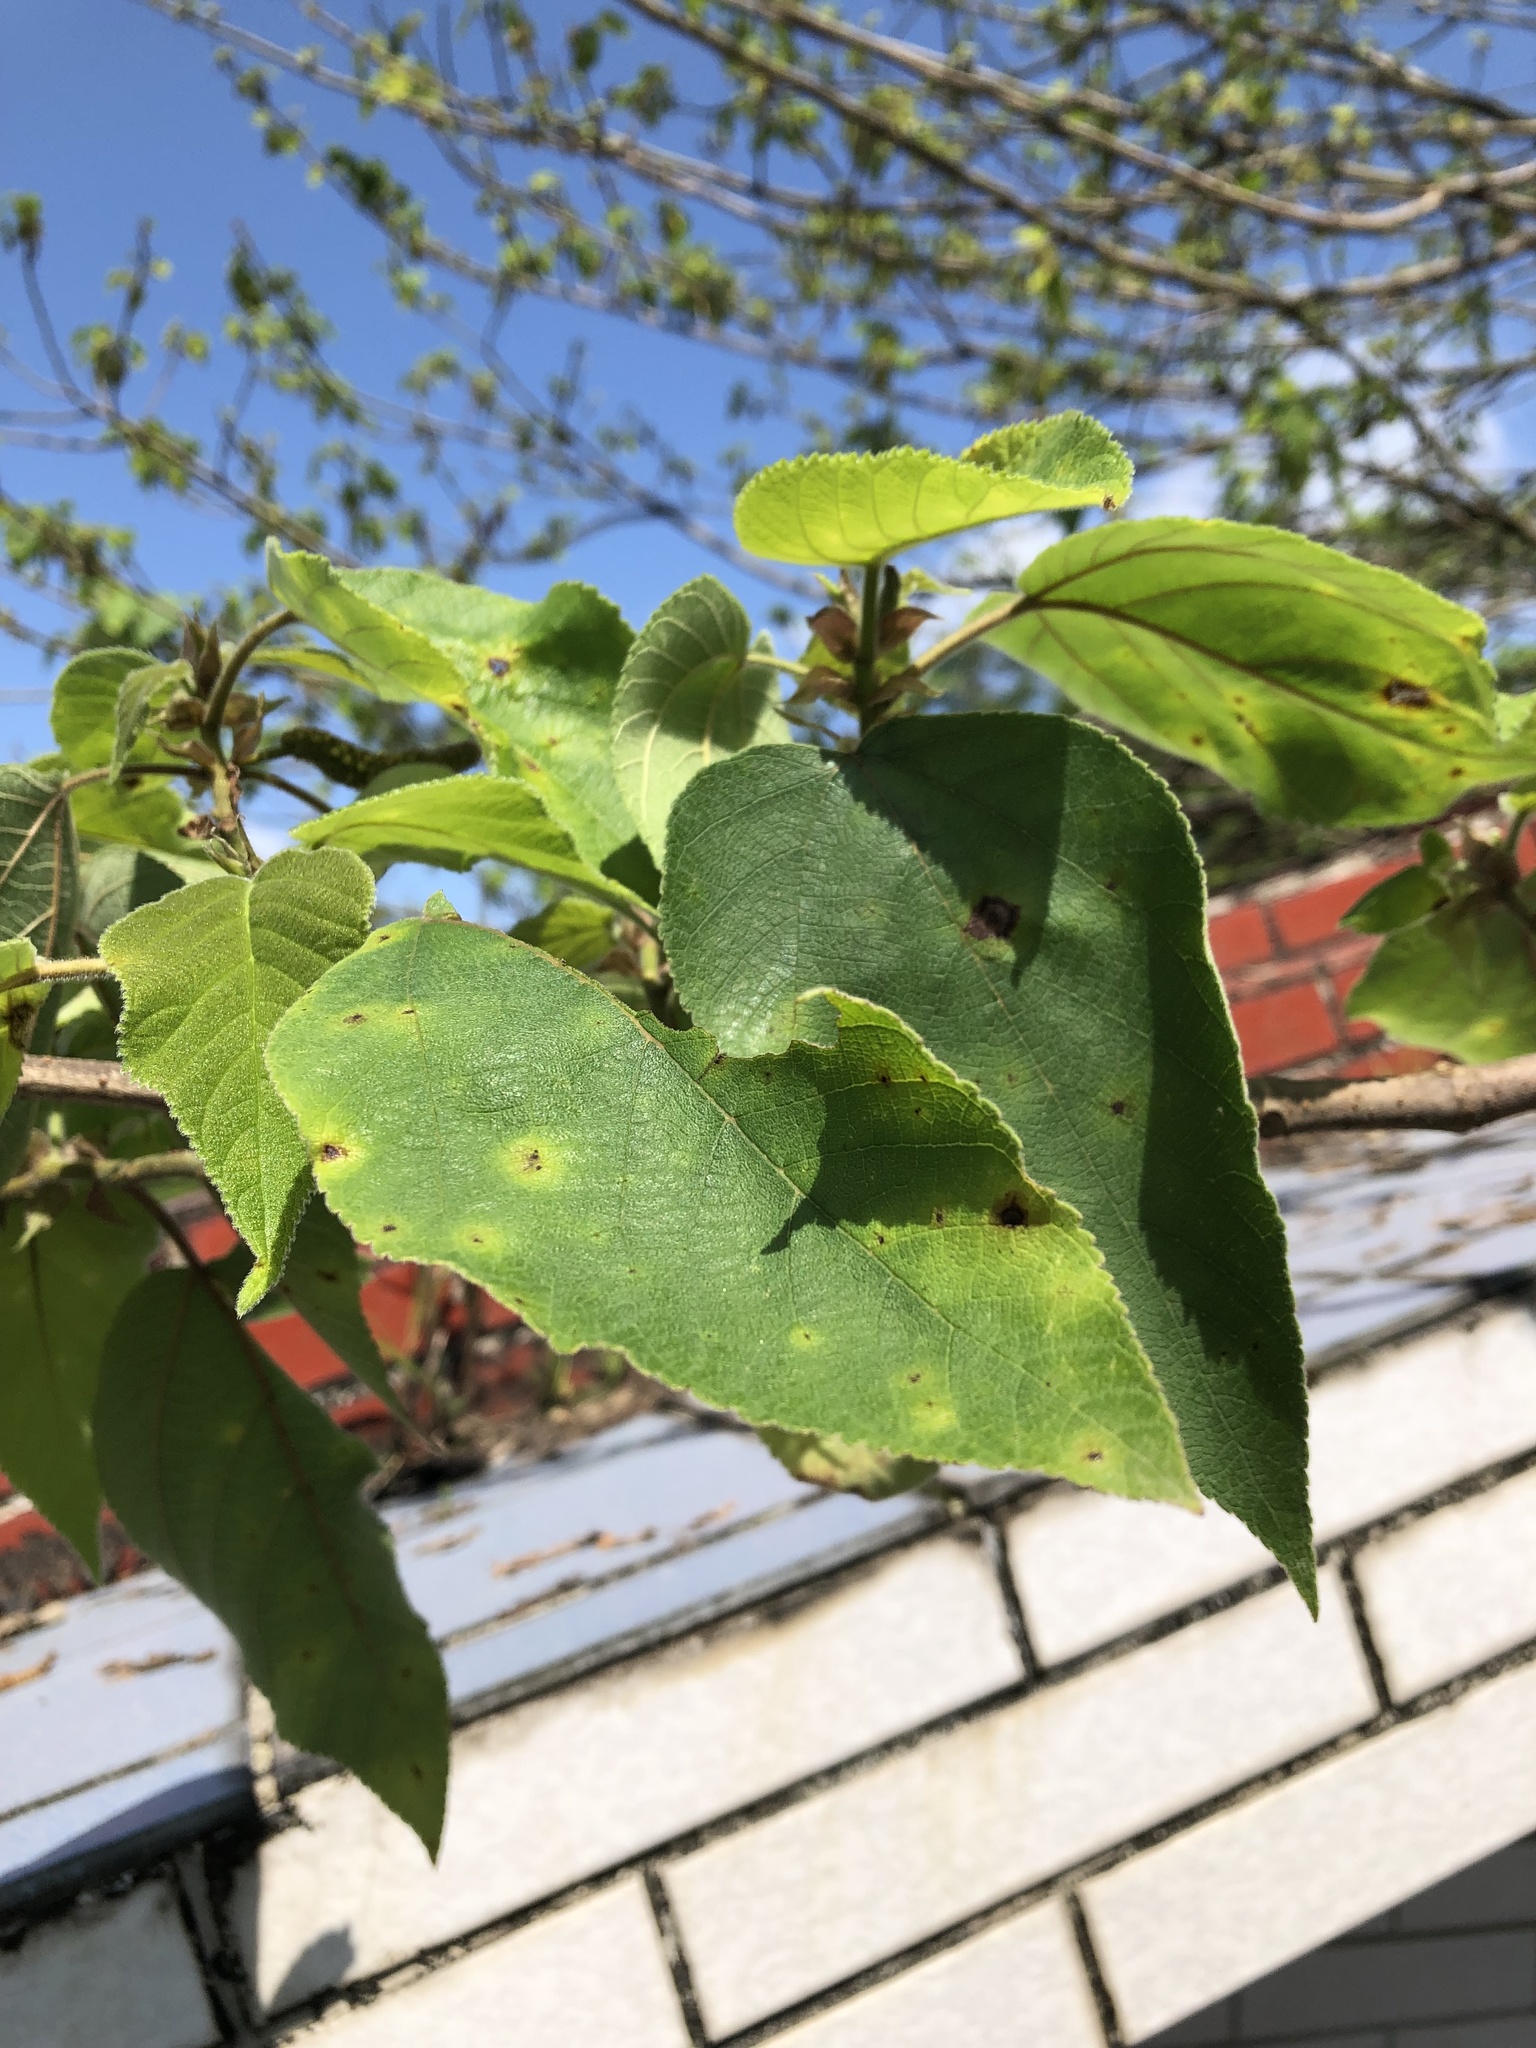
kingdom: Plantae
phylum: Tracheophyta
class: Magnoliopsida
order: Rosales
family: Moraceae
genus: Broussonetia
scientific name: Broussonetia papyrifera
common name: Paper mulberry
